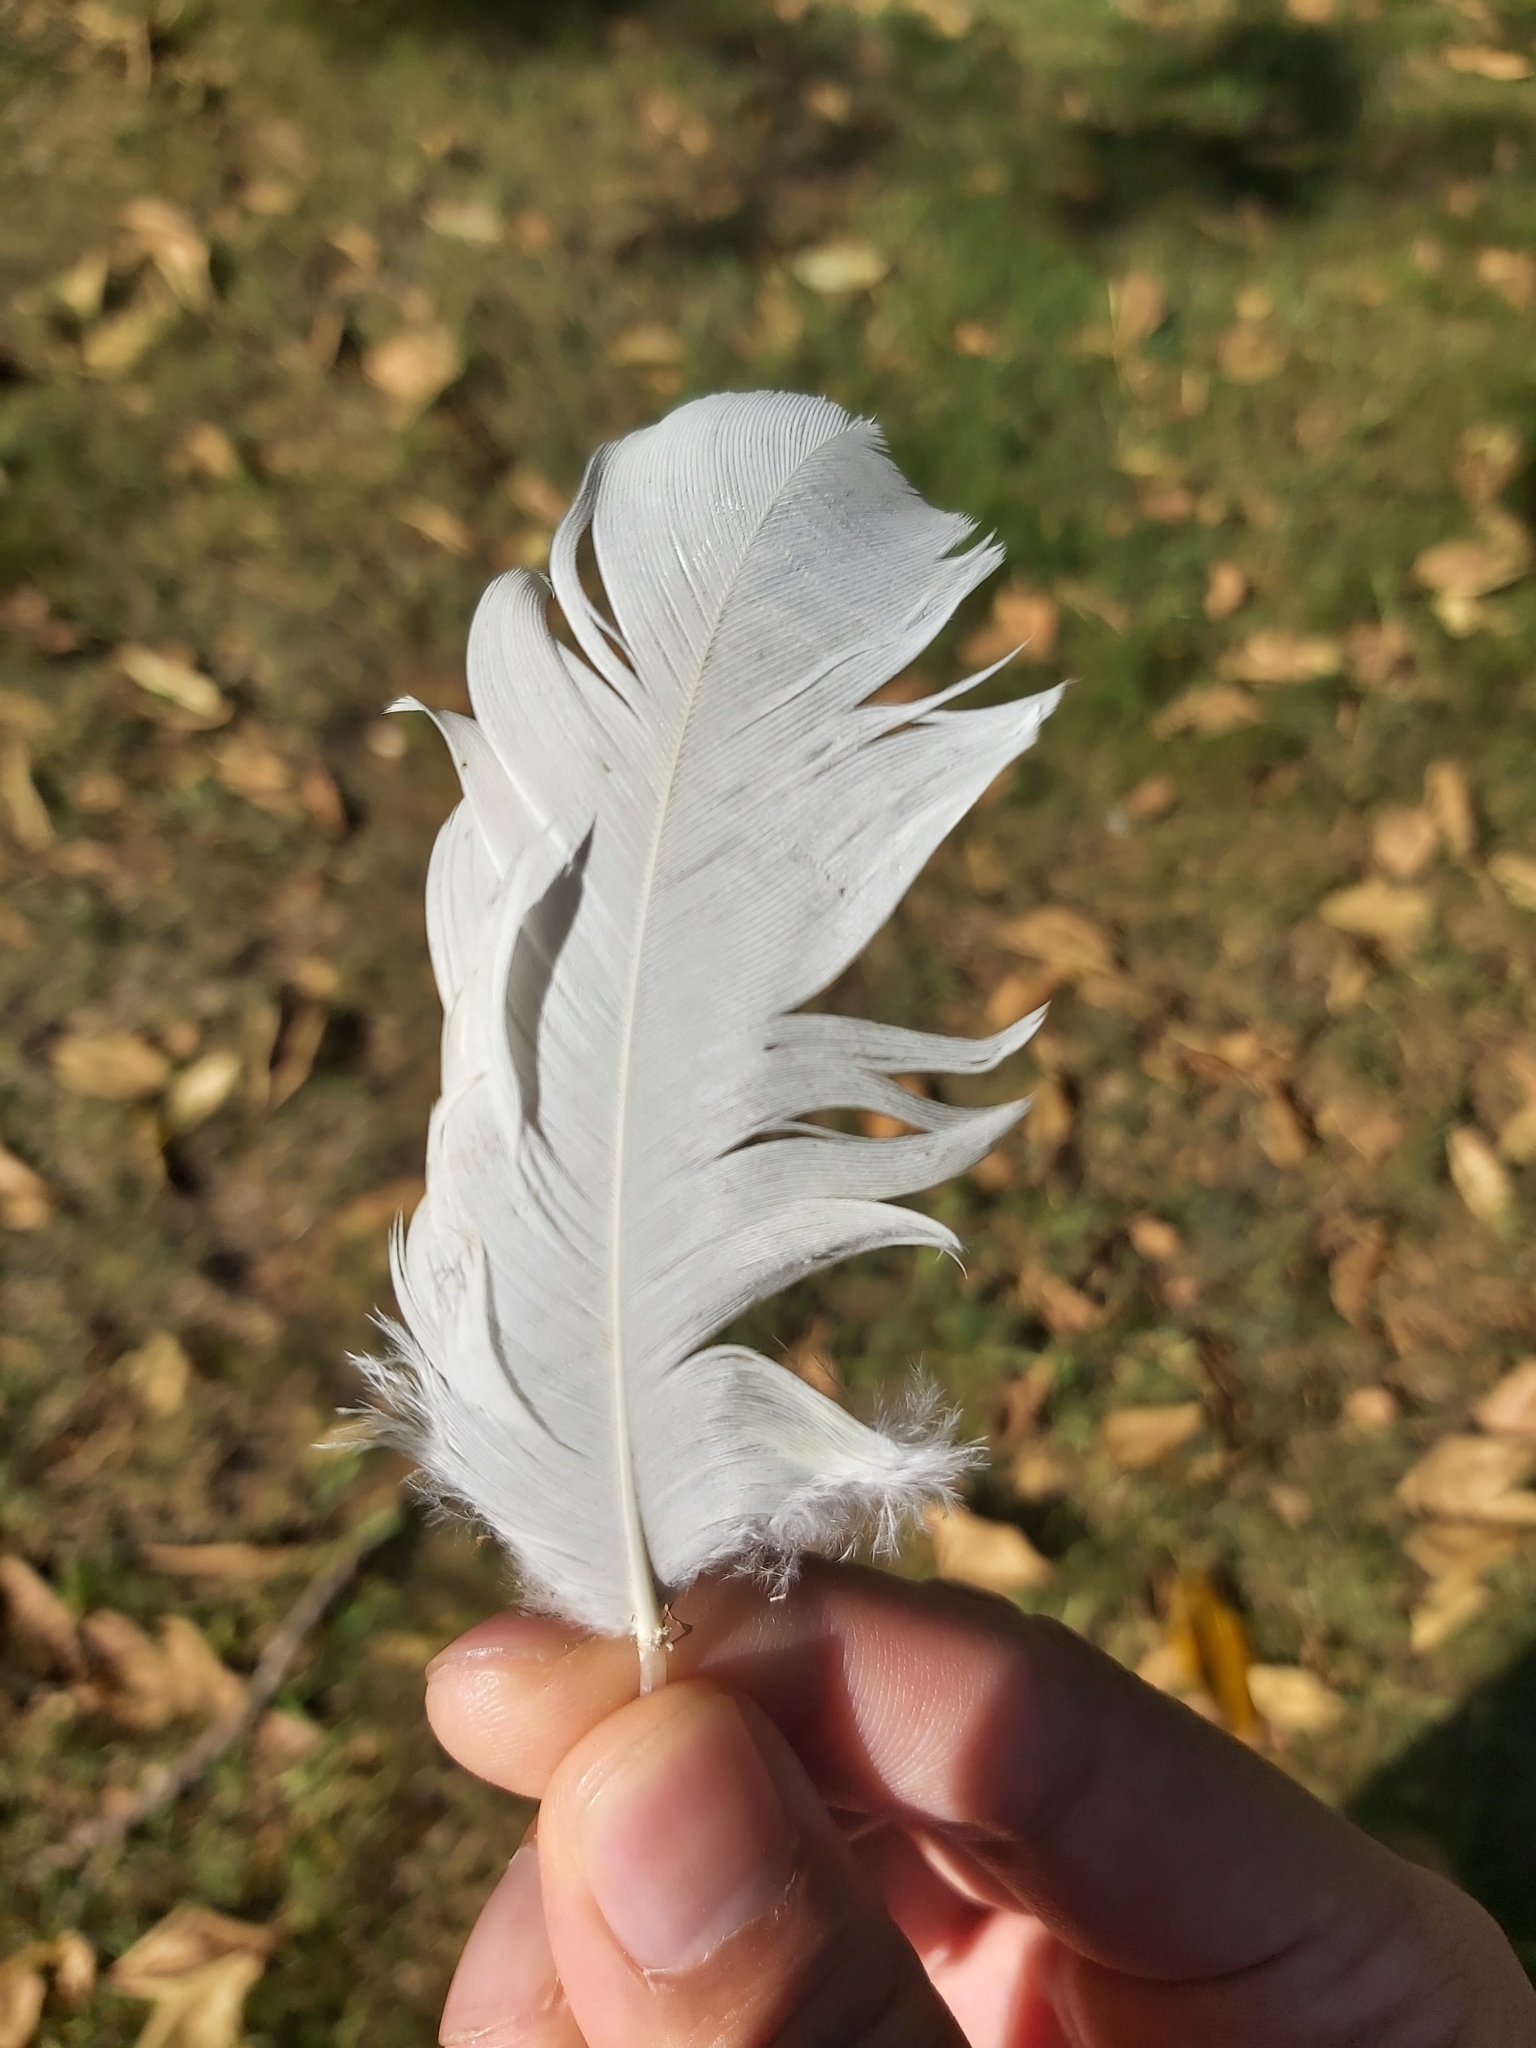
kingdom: Animalia
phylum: Chordata
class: Aves
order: Psittaciformes
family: Psittacidae
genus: Cacatua
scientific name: Cacatua galerita
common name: Sulphur-crested cockatoo
